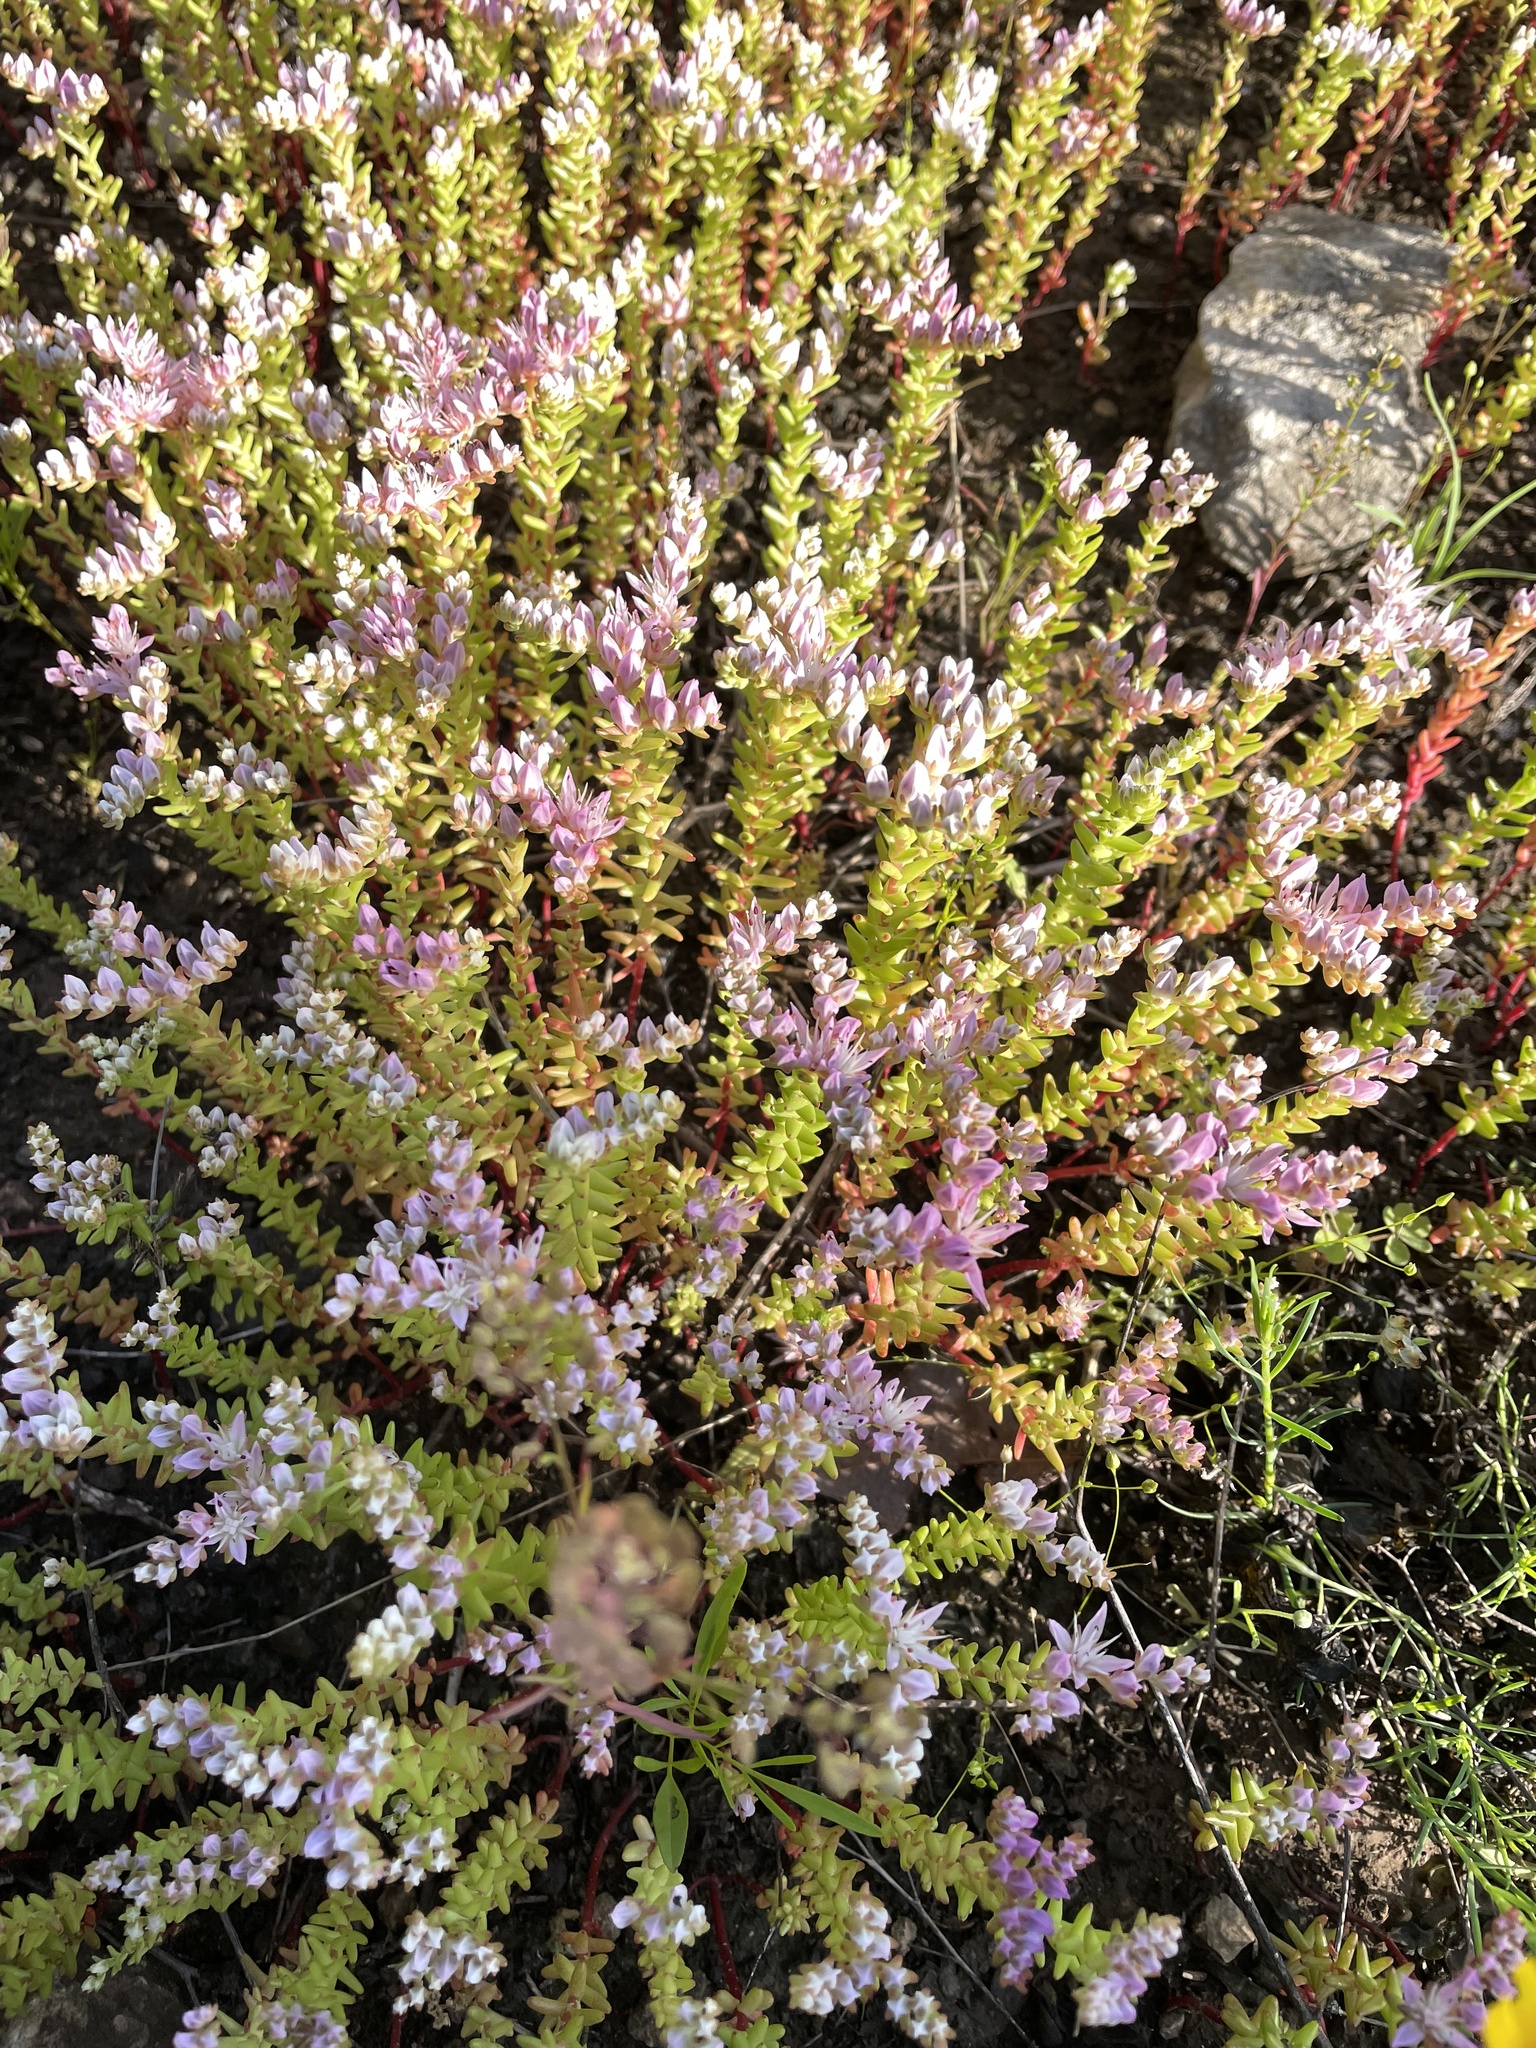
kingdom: Plantae
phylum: Tracheophyta
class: Magnoliopsida
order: Saxifragales
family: Crassulaceae
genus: Sedum
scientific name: Sedum pulchellum
